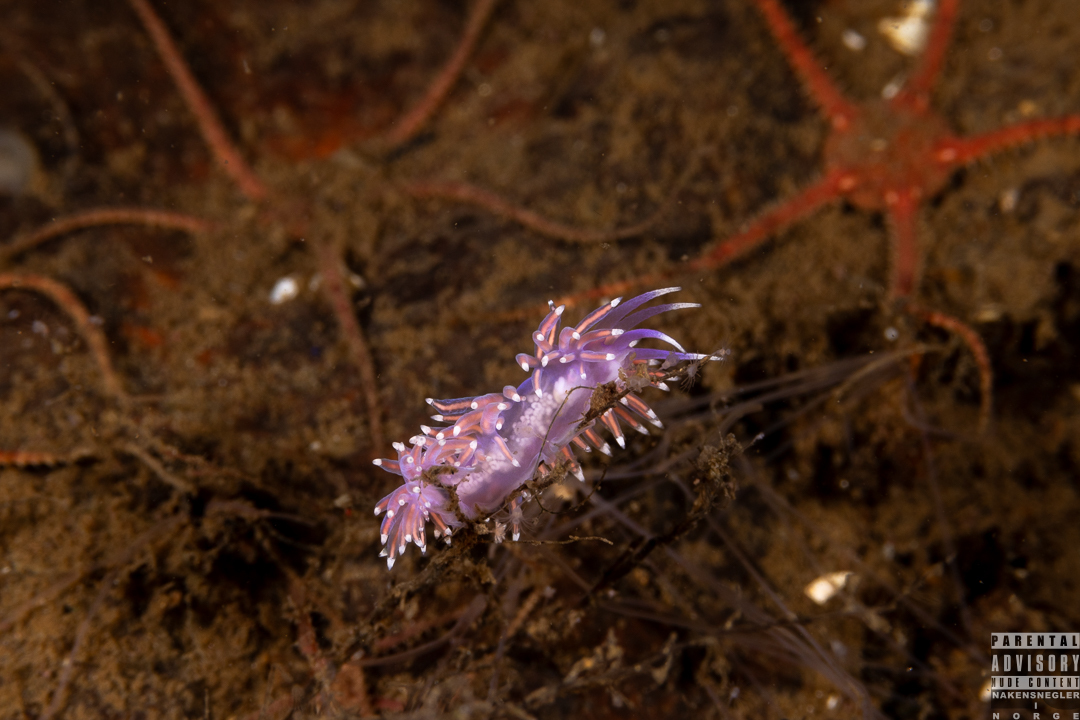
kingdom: Animalia
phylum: Mollusca
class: Gastropoda
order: Nudibranchia
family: Flabellinidae
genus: Edmundsella
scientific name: Edmundsella pedata
